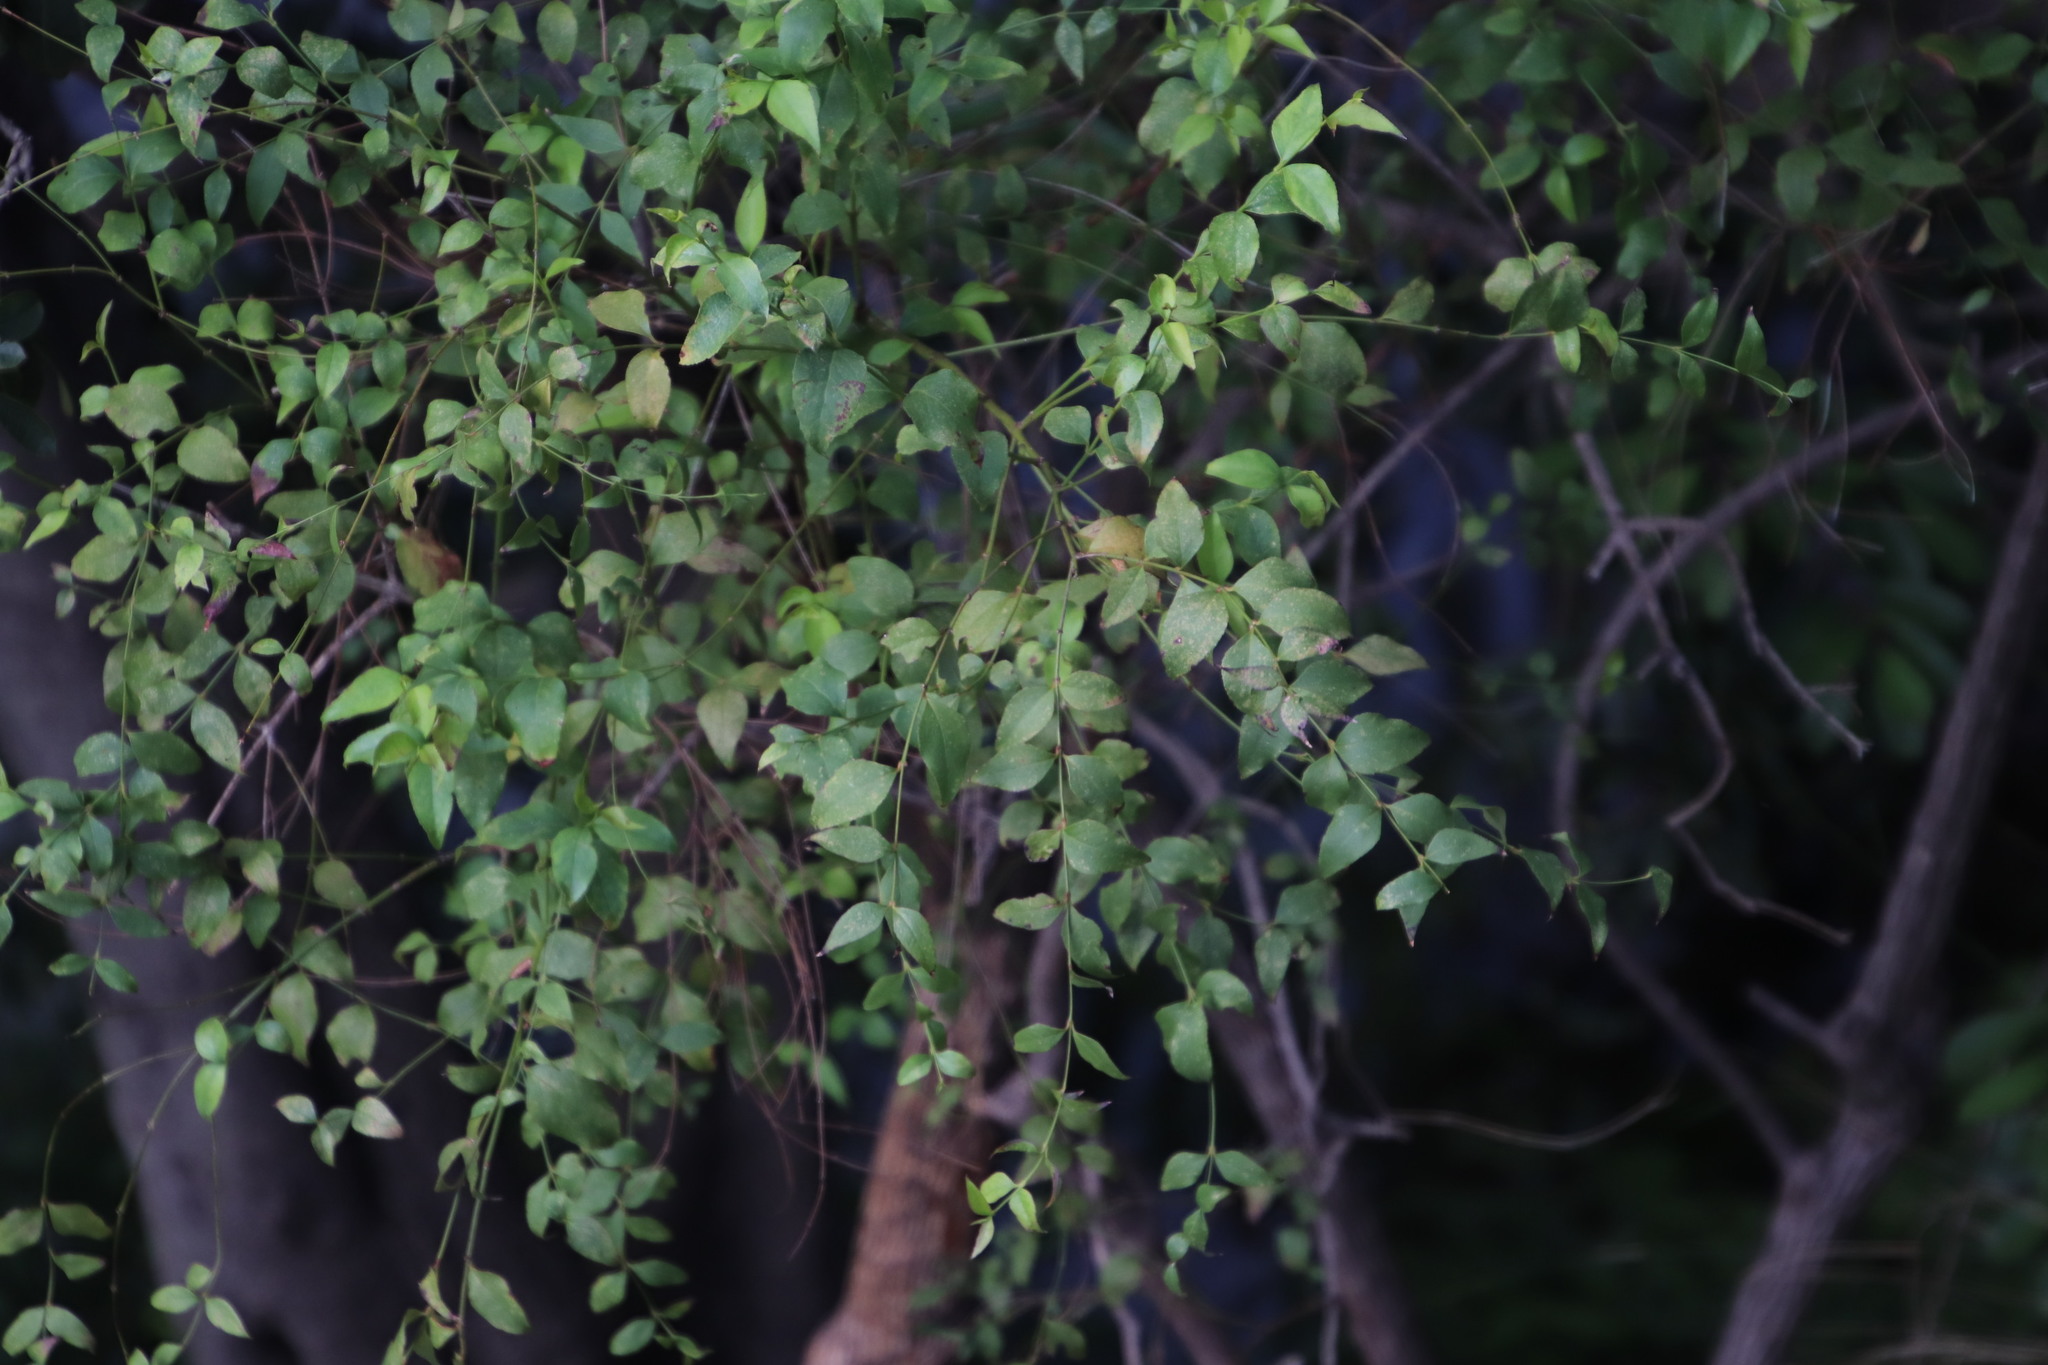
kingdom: Plantae
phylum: Tracheophyta
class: Magnoliopsida
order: Lamiales
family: Stilbaceae
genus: Halleria
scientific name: Halleria lucida
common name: Tree fuschia
